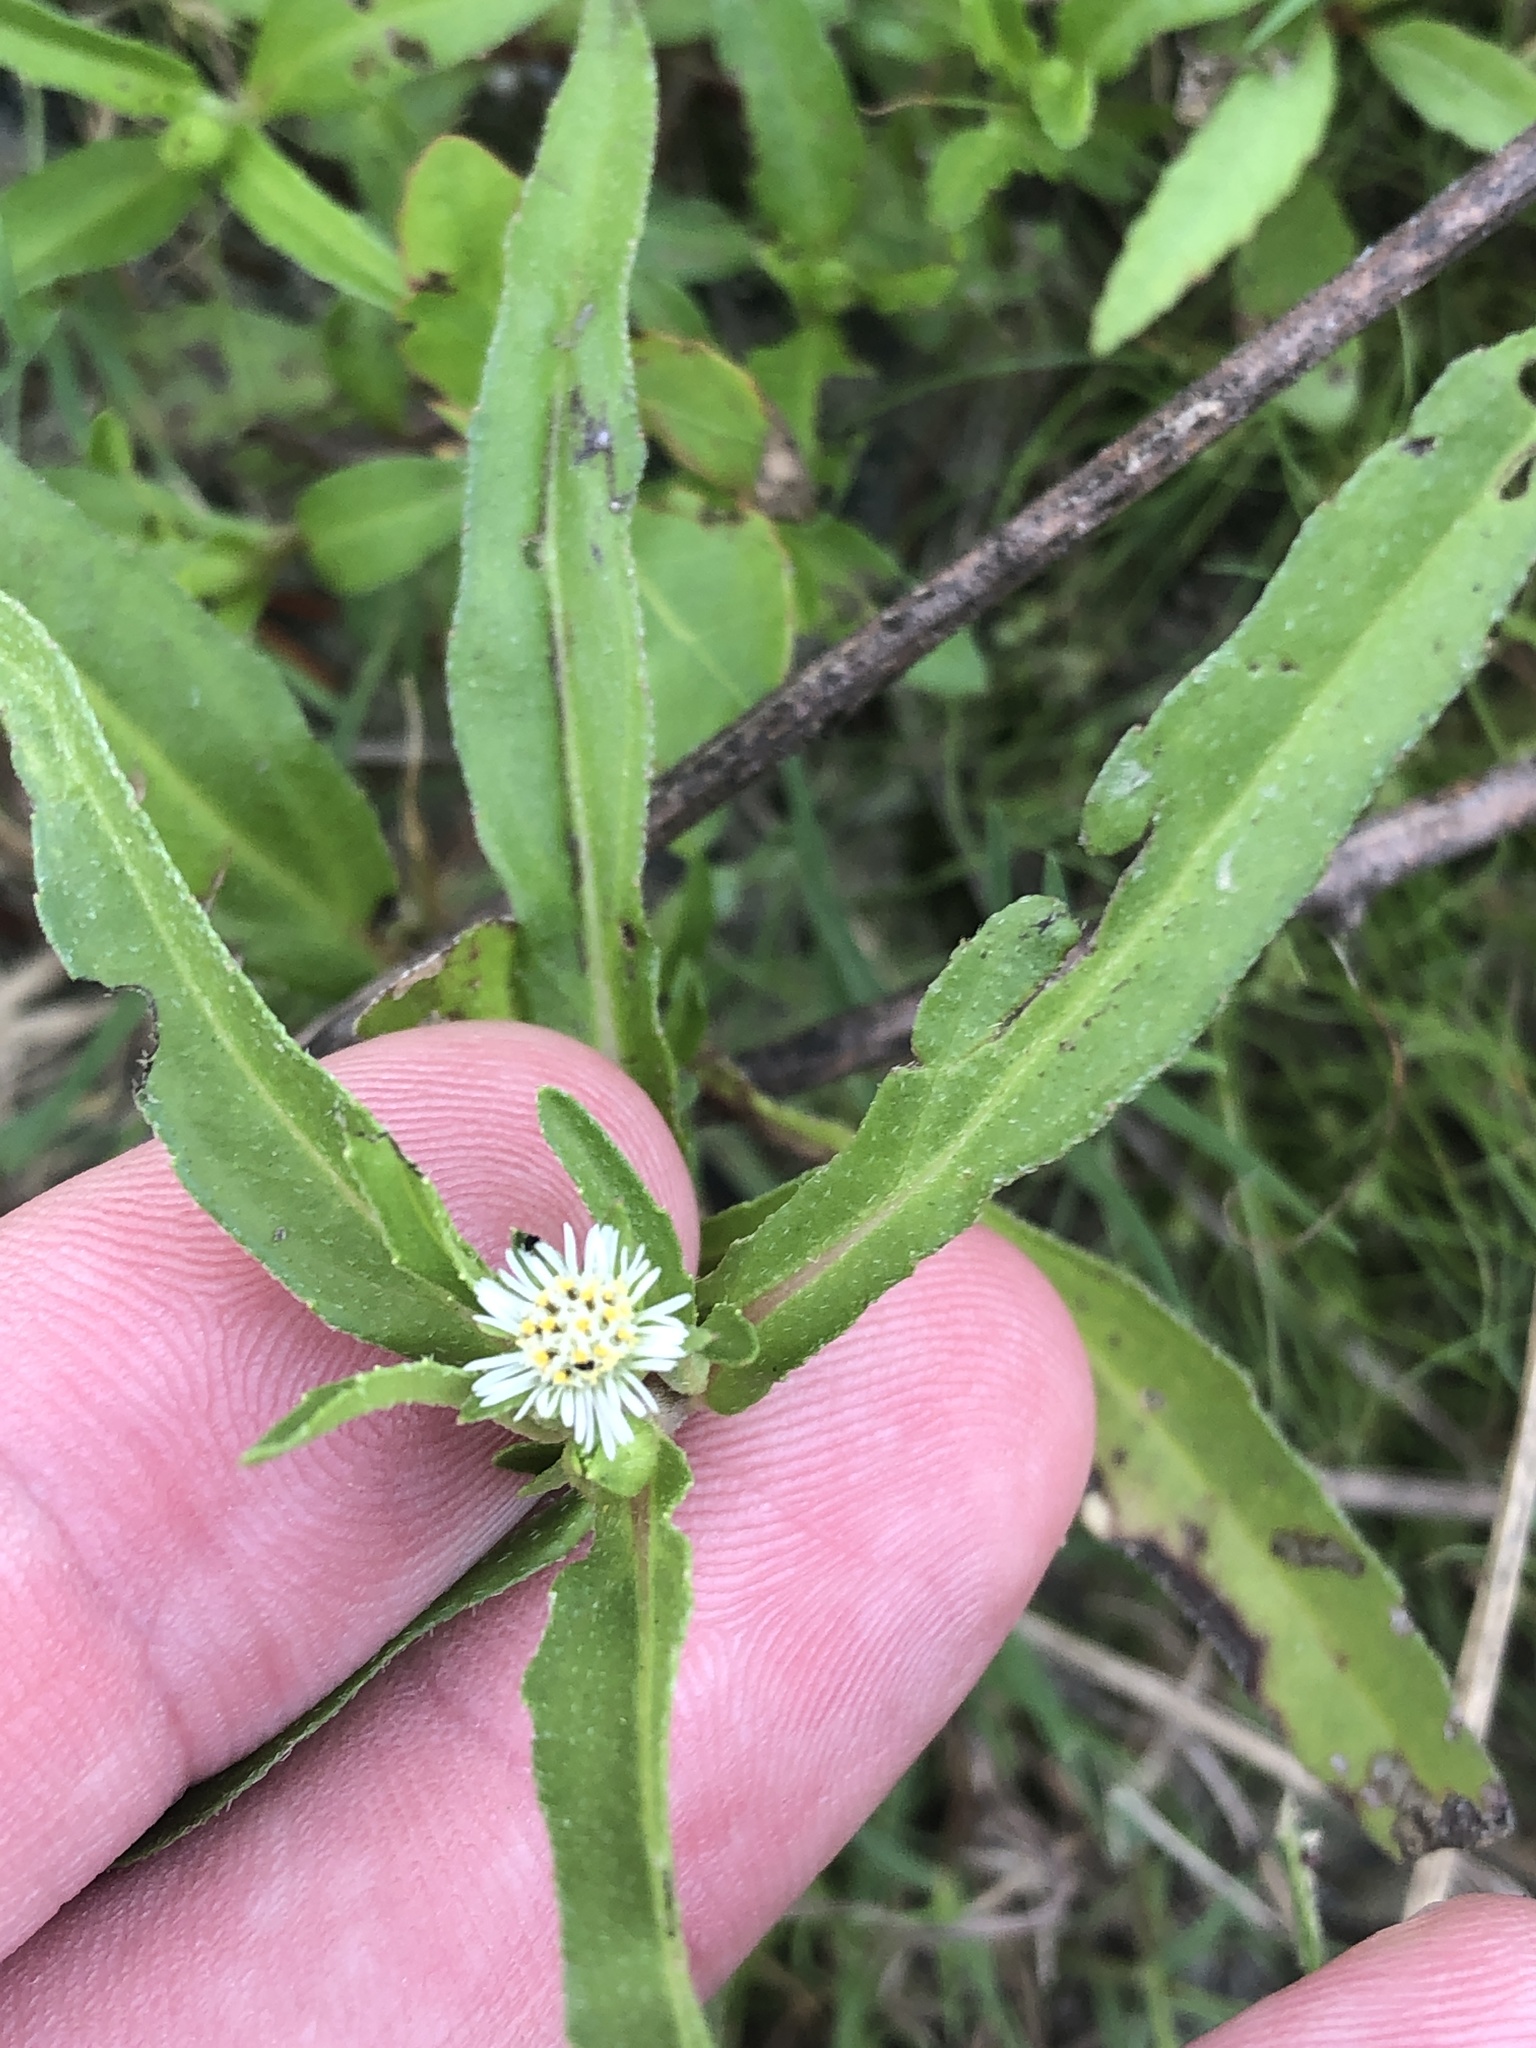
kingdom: Plantae
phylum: Tracheophyta
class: Magnoliopsida
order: Asterales
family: Asteraceae
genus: Eclipta
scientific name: Eclipta prostrata
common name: False daisy
